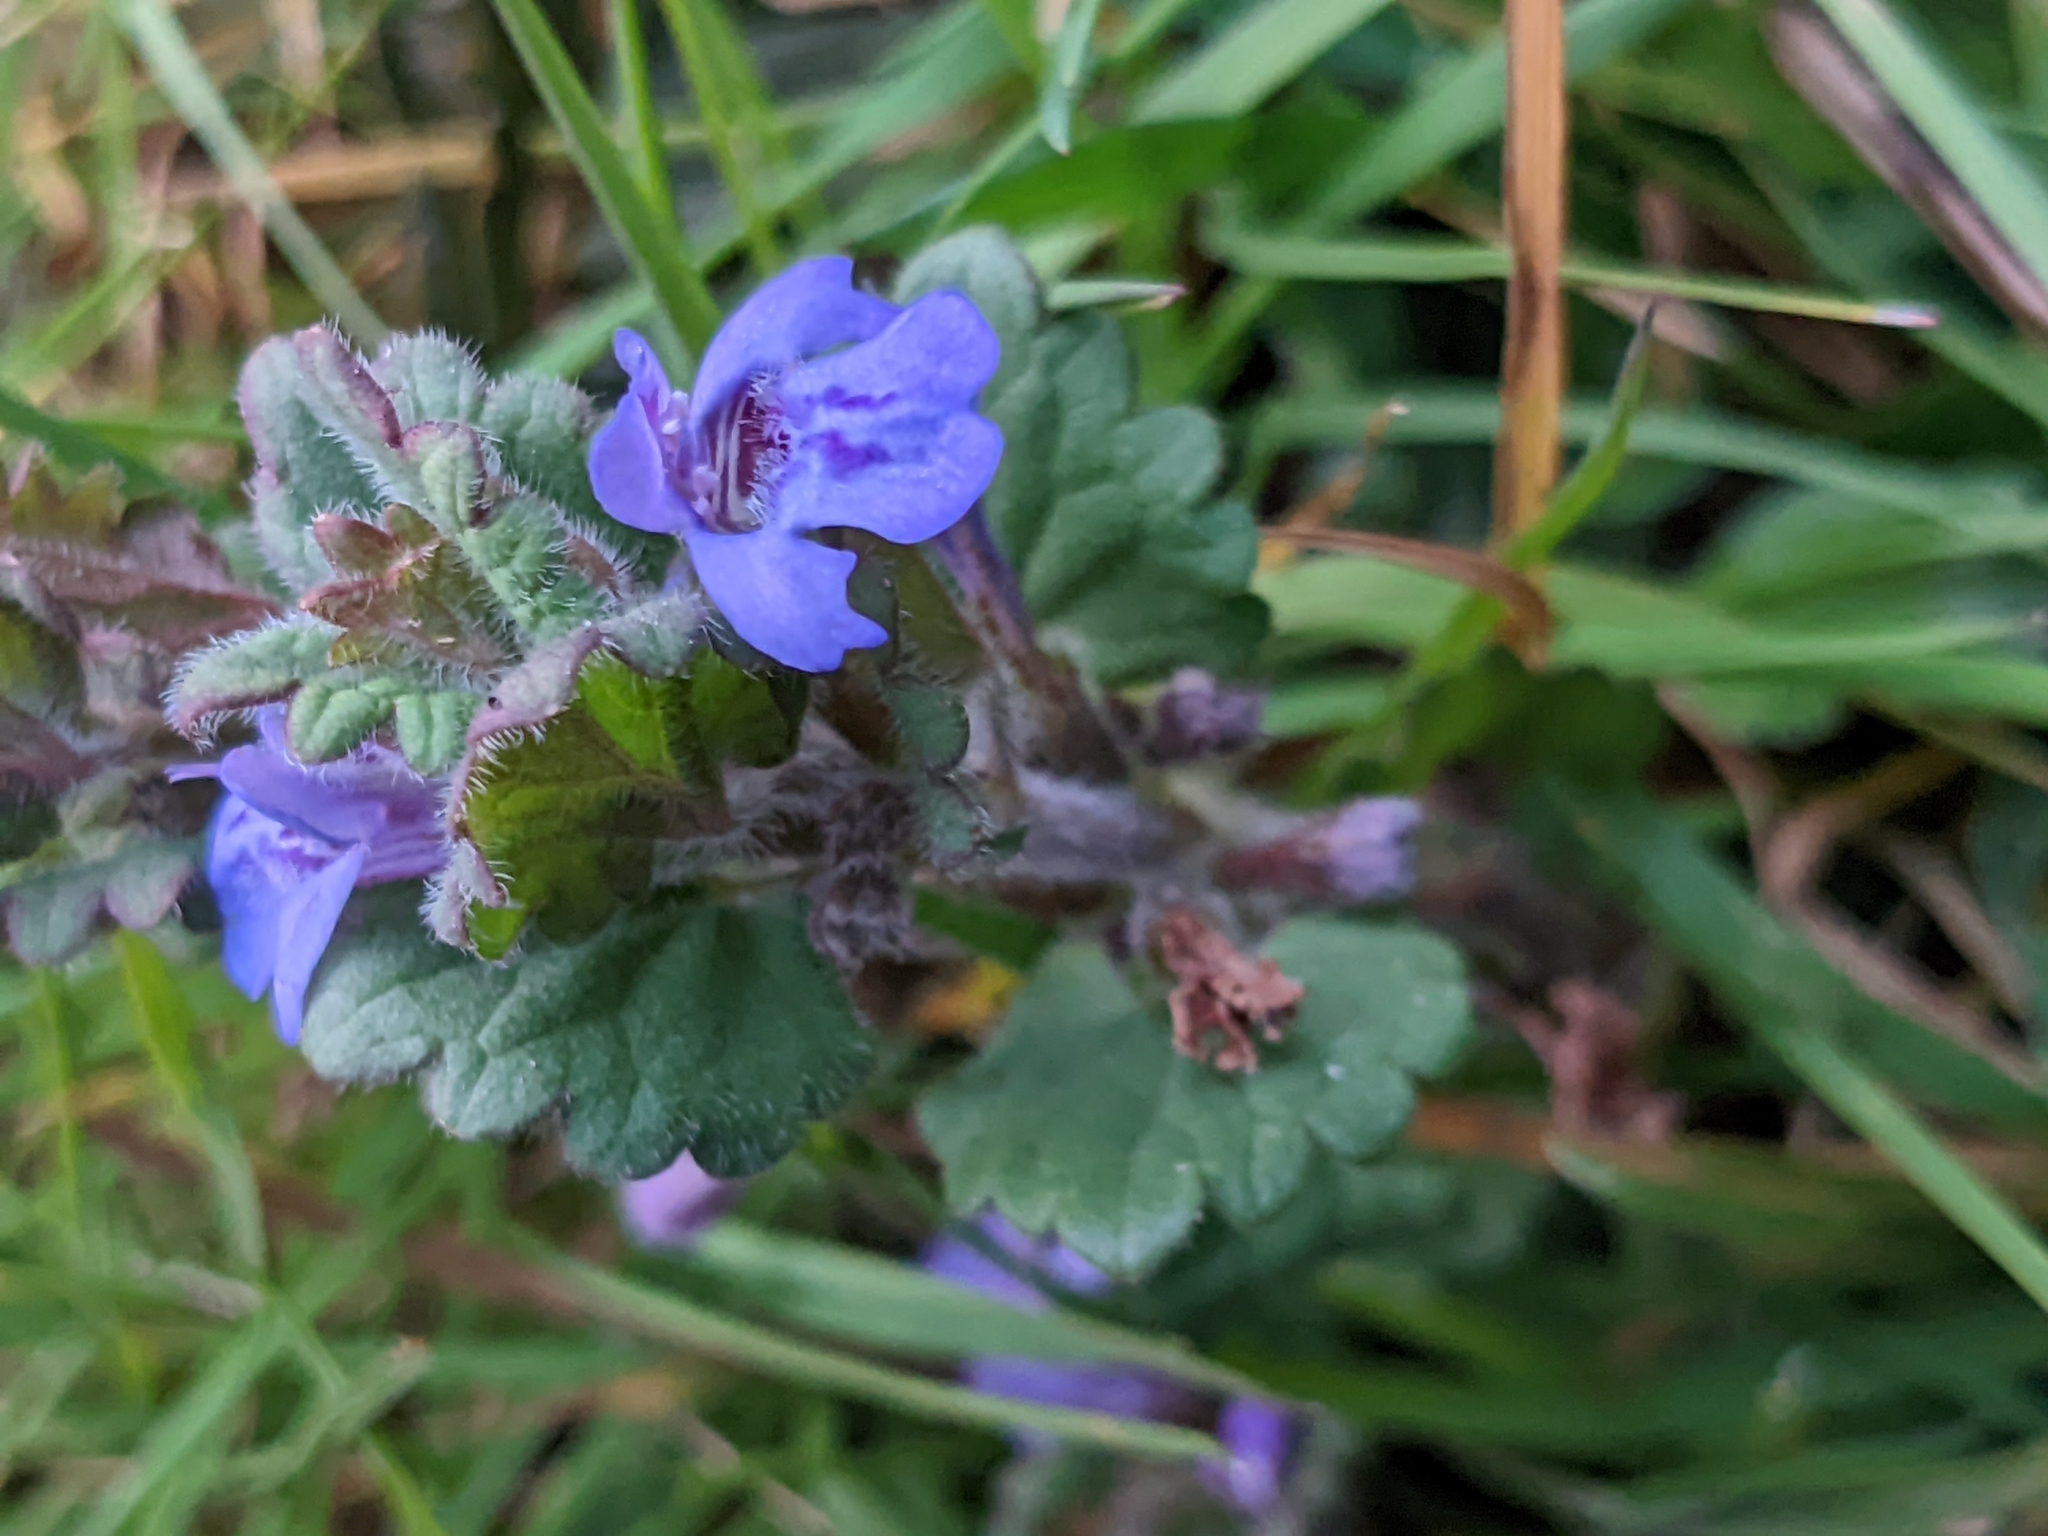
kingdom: Plantae
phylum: Tracheophyta
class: Magnoliopsida
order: Lamiales
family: Lamiaceae
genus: Glechoma
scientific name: Glechoma hederacea
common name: Ground ivy
